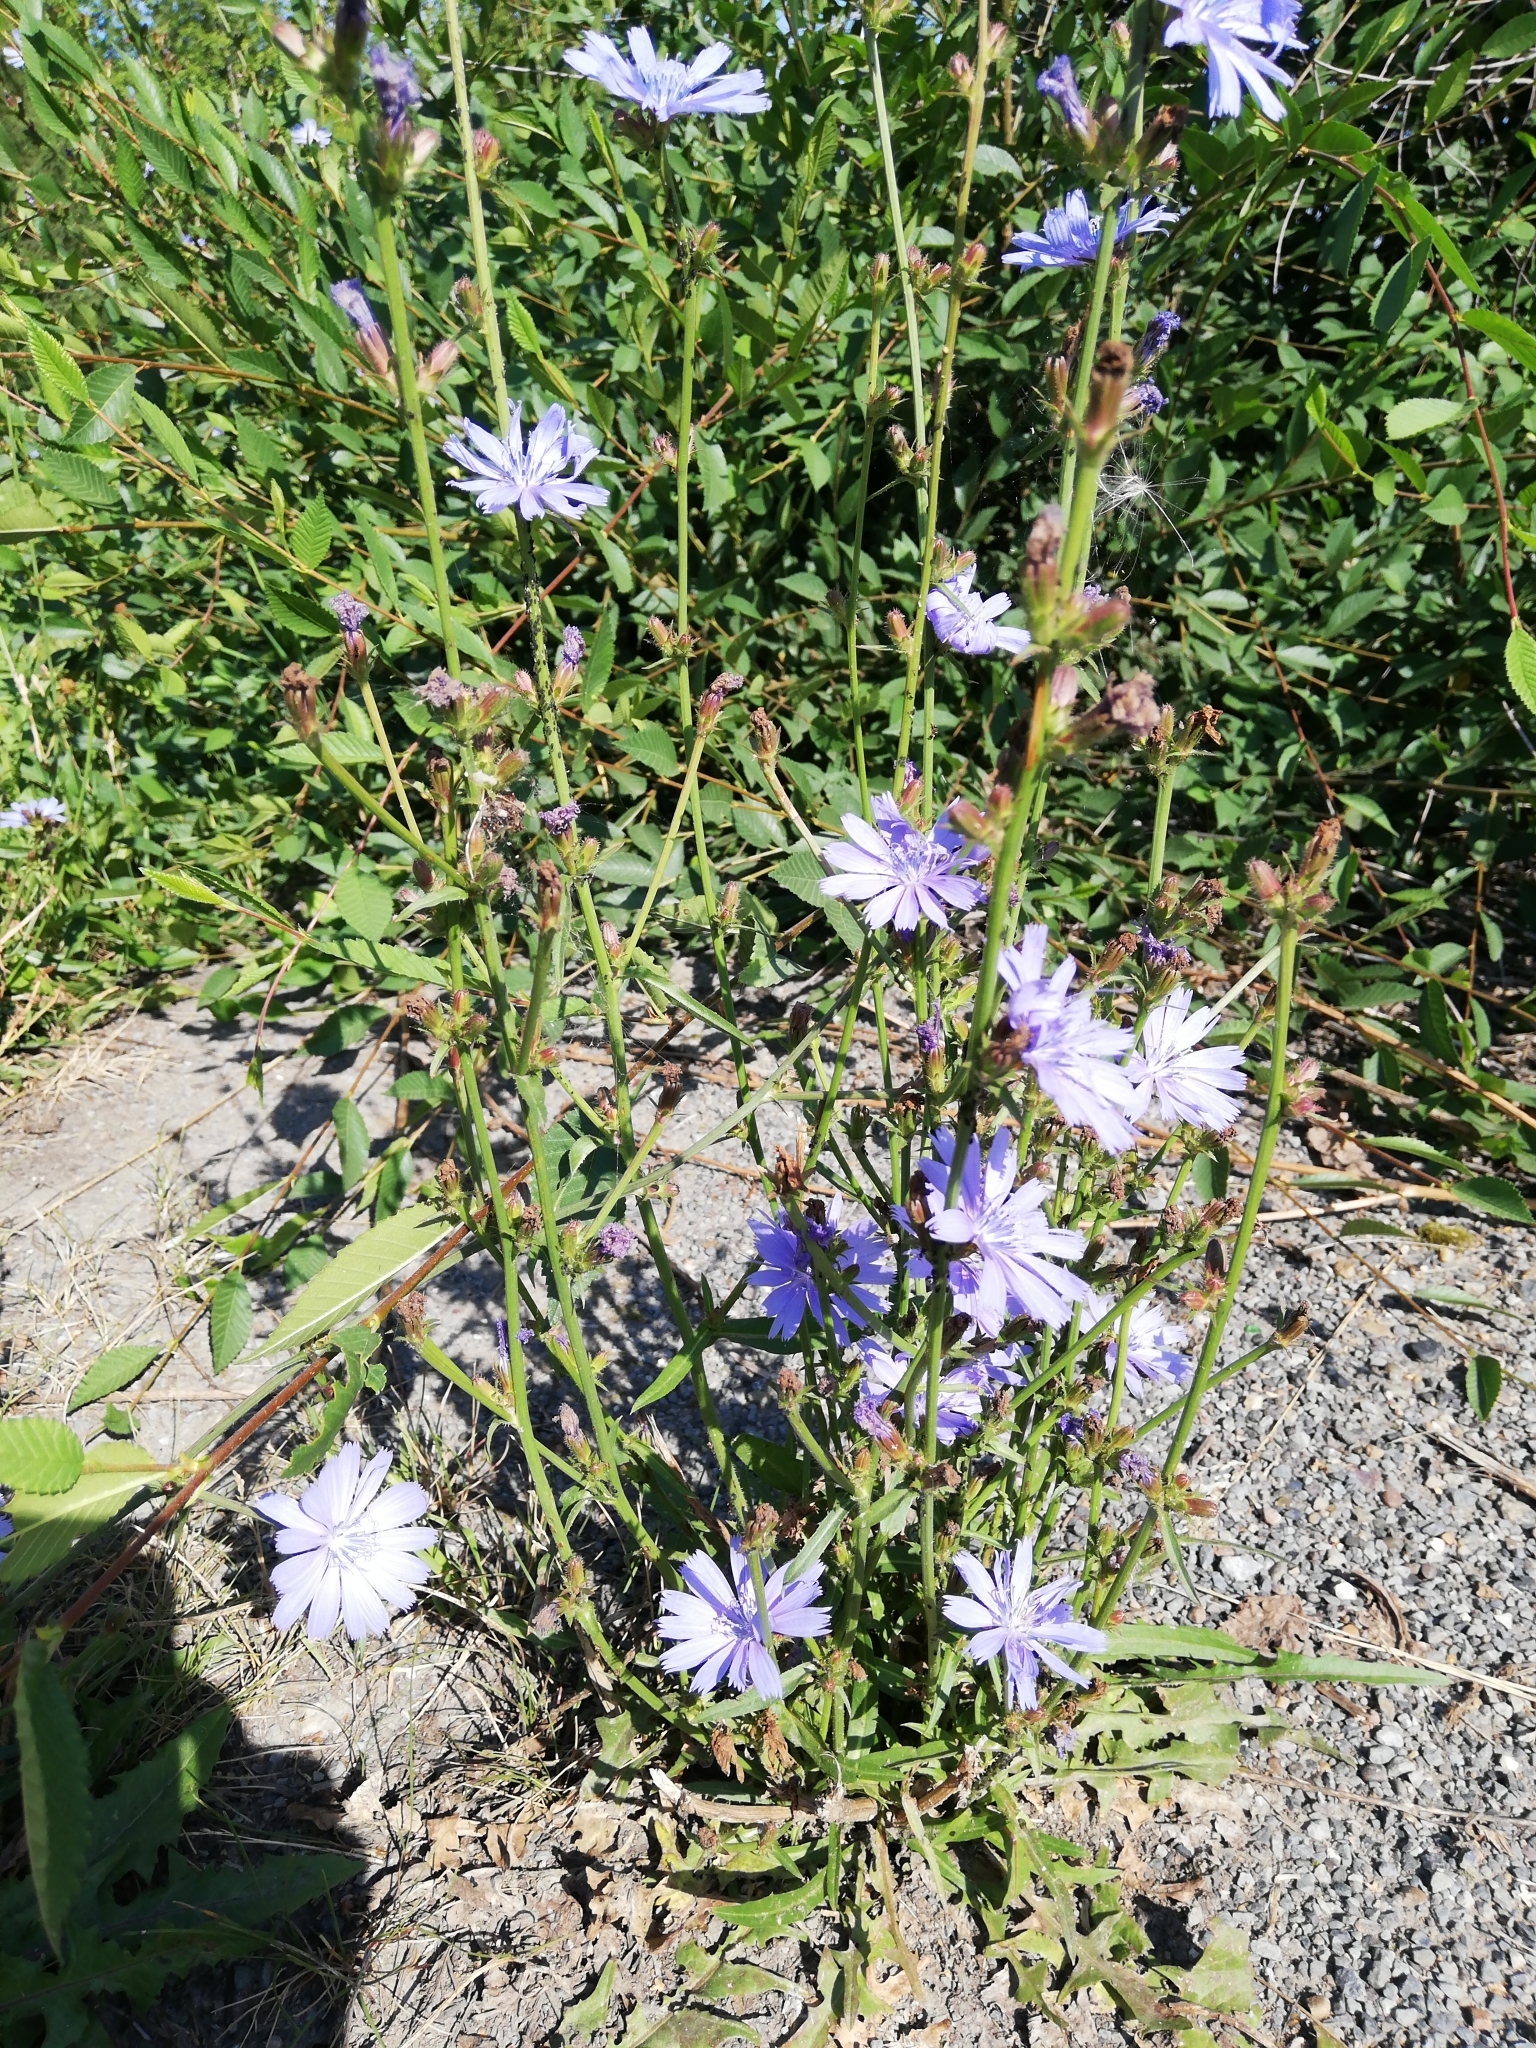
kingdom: Plantae
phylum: Tracheophyta
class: Magnoliopsida
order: Asterales
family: Asteraceae
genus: Cichorium
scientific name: Cichorium intybus
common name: Chicory
